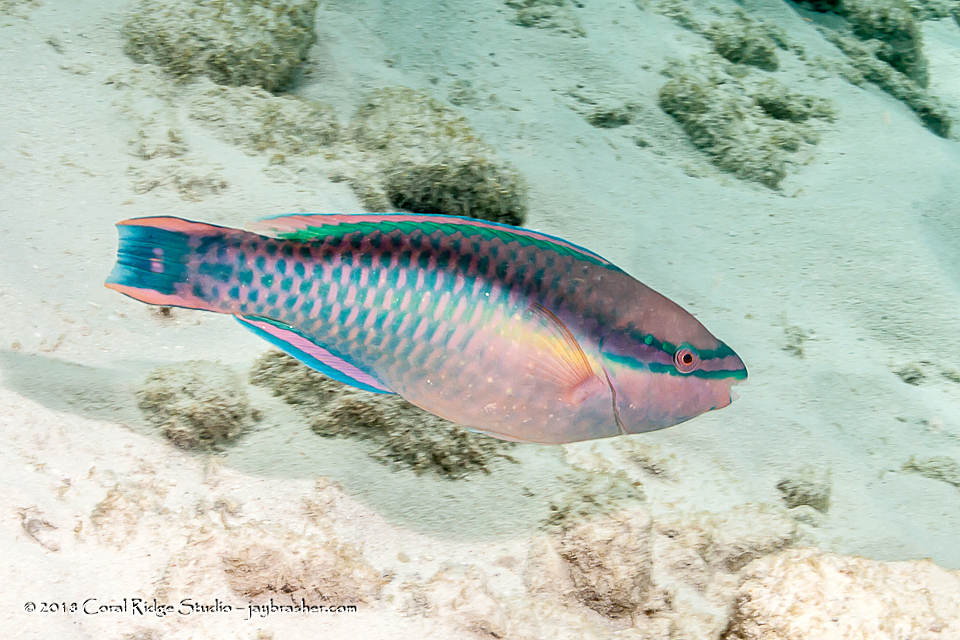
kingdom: Animalia
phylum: Chordata
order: Perciformes
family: Scaridae
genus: Scarus
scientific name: Scarus taeniopterus
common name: Princess parrotfish
